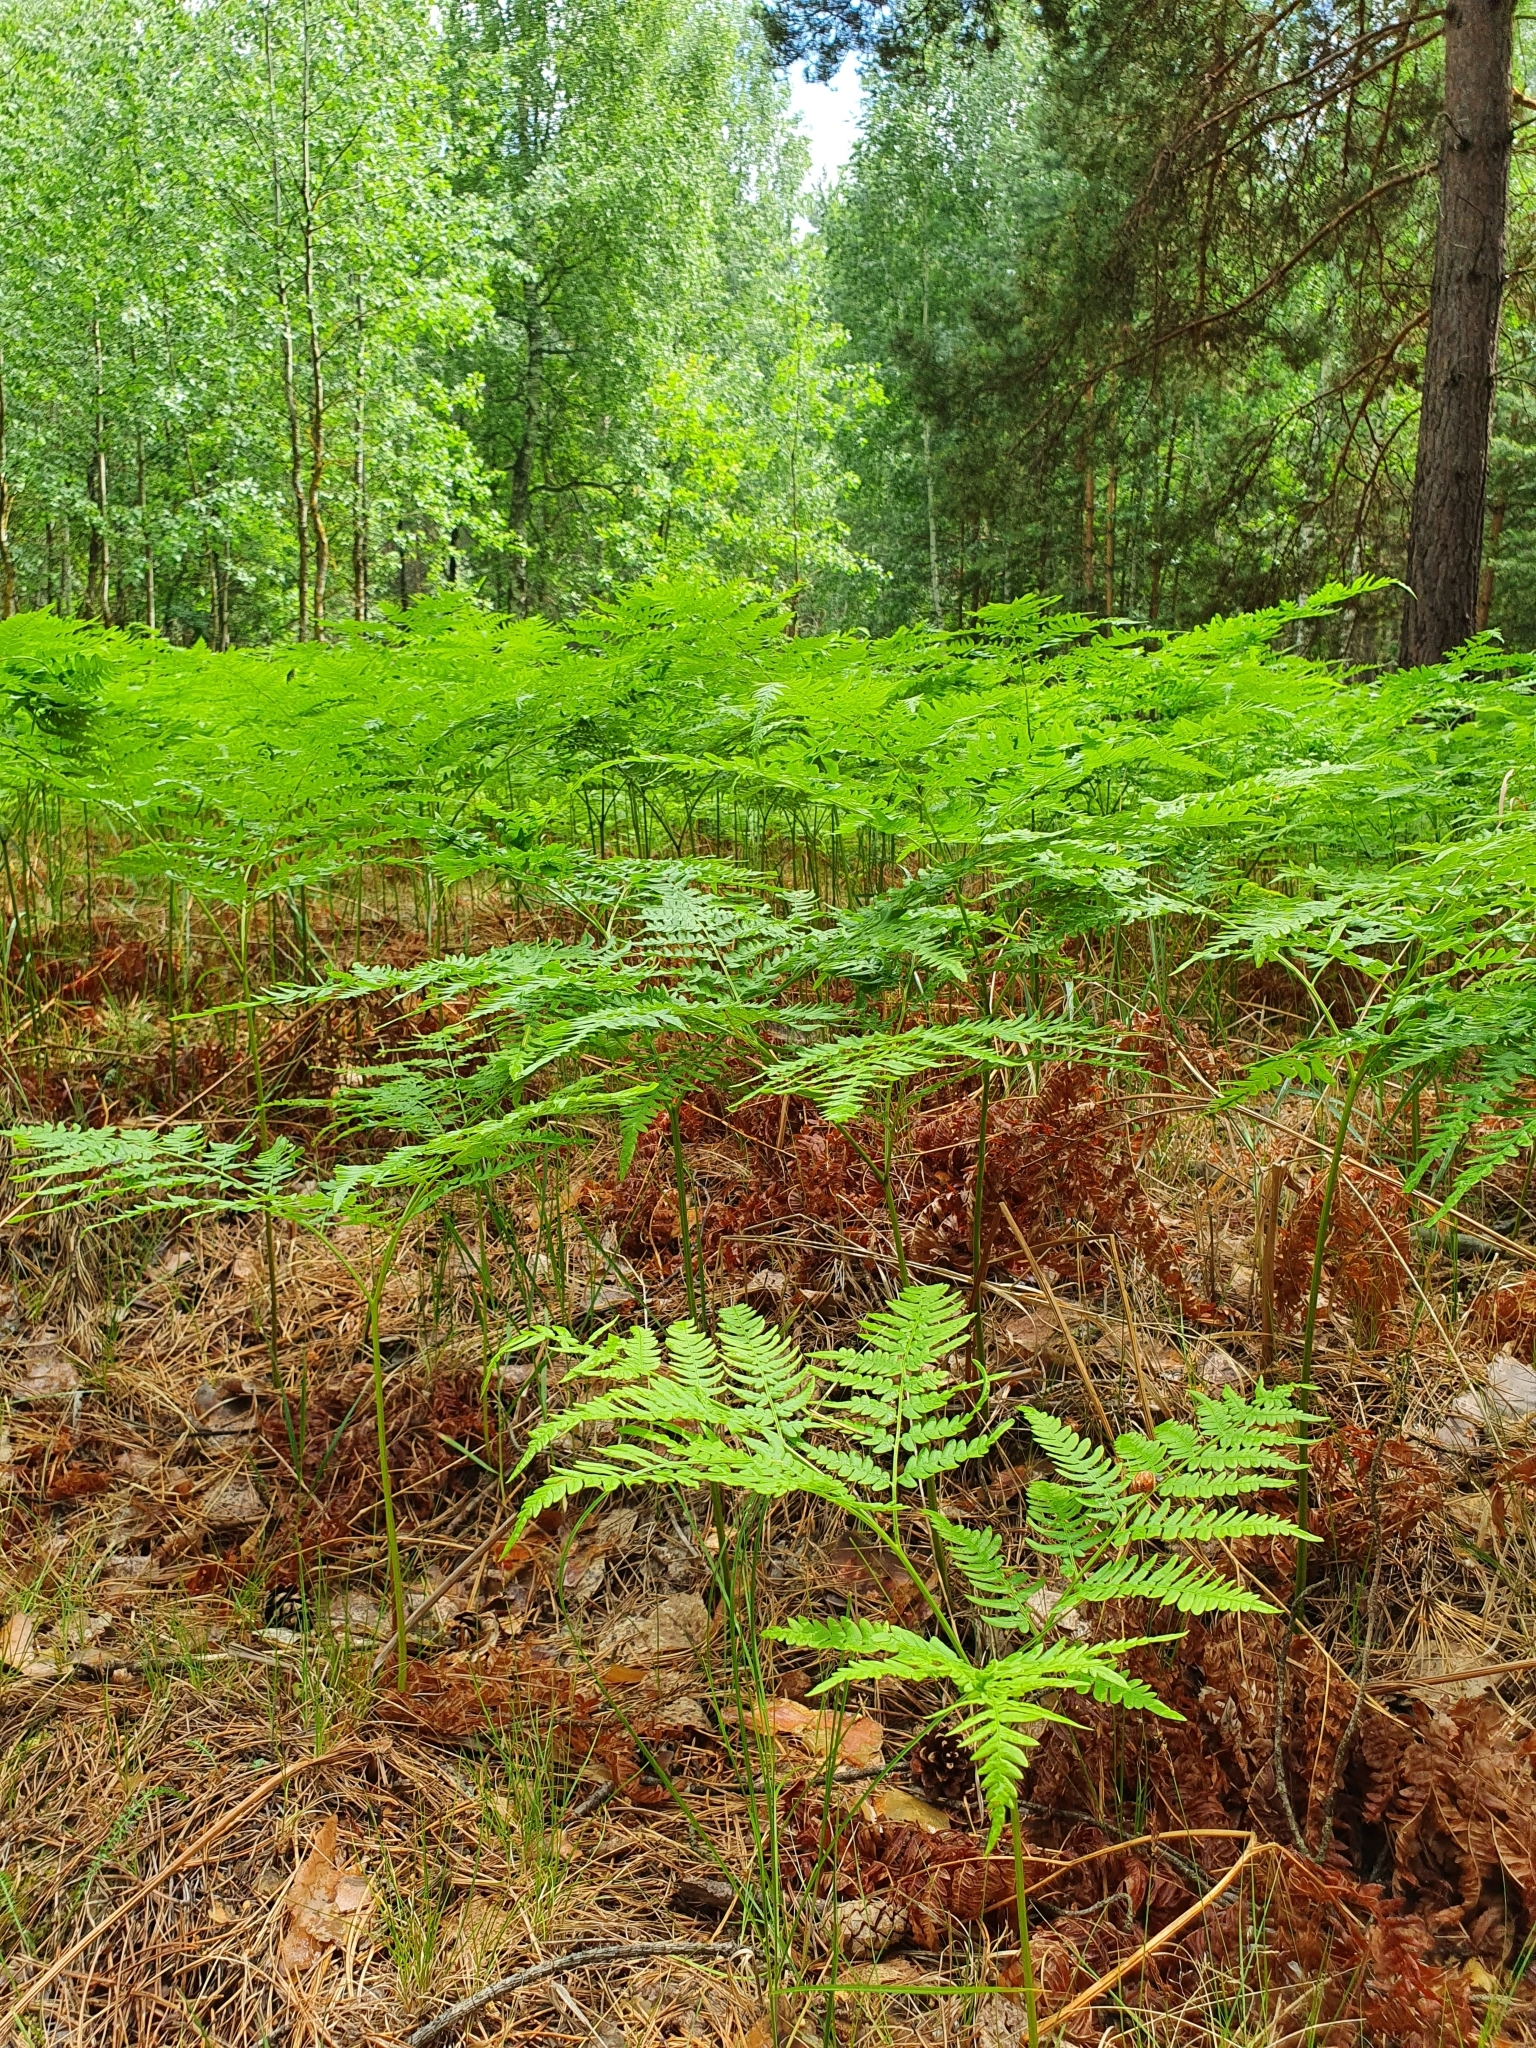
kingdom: Plantae
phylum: Tracheophyta
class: Polypodiopsida
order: Polypodiales
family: Dennstaedtiaceae
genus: Pteridium
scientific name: Pteridium aquilinum
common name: Bracken
